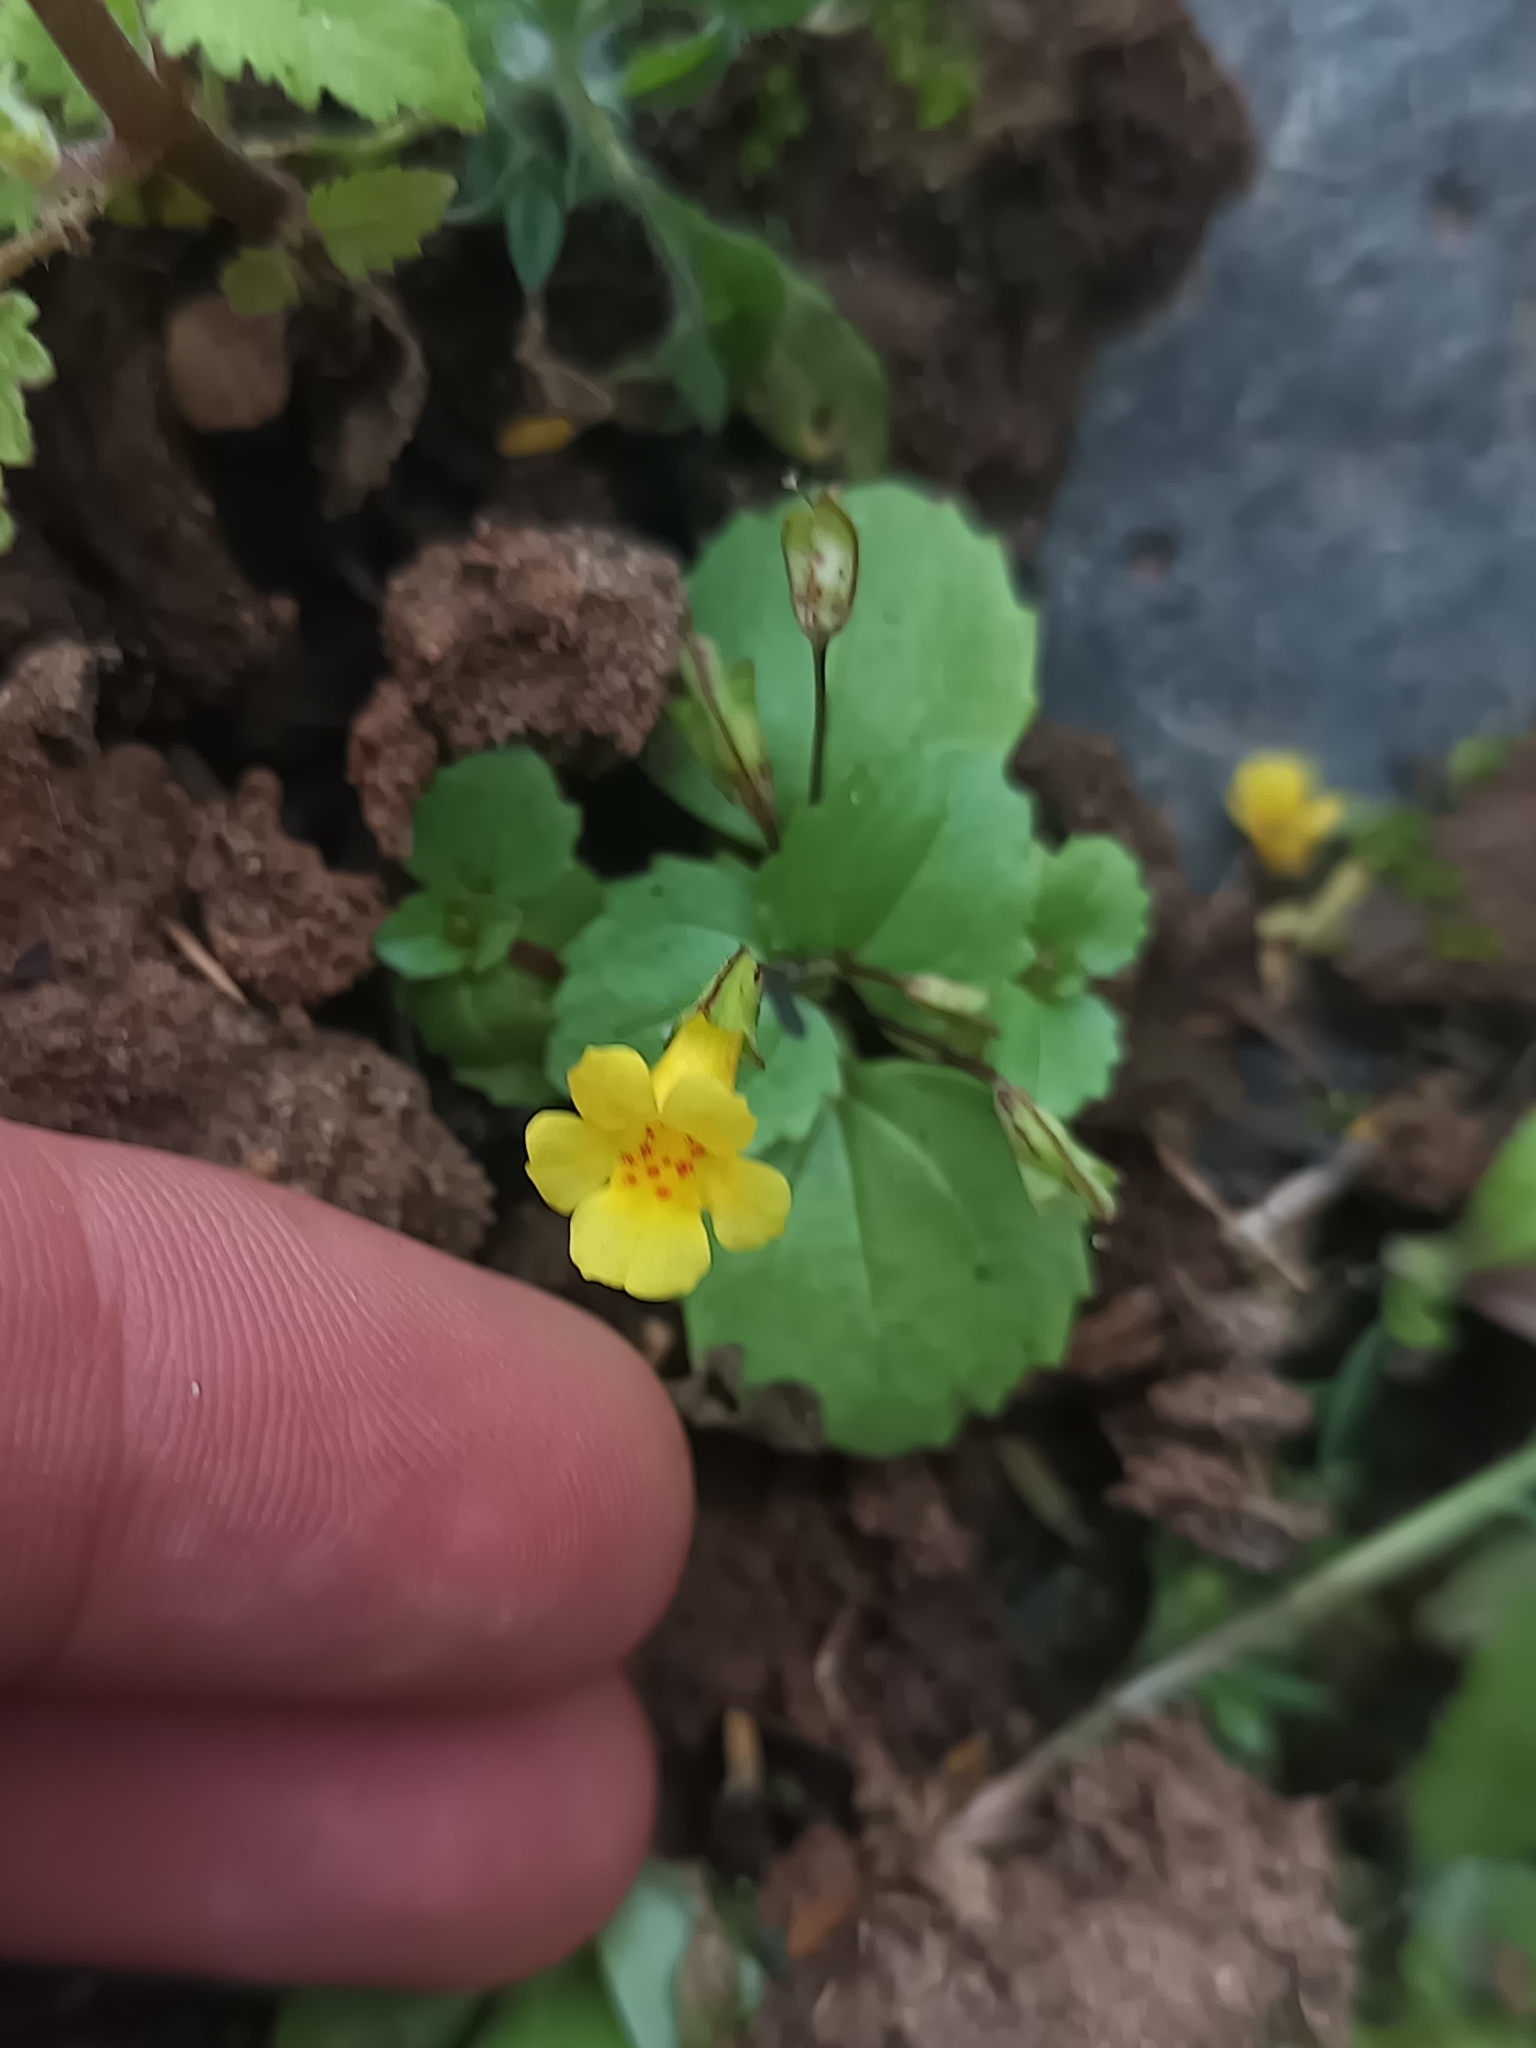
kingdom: Plantae
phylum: Tracheophyta
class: Magnoliopsida
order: Lamiales
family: Phrymaceae
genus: Erythranthe
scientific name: Erythranthe glabrata
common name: Round-leaved monkeyflower
